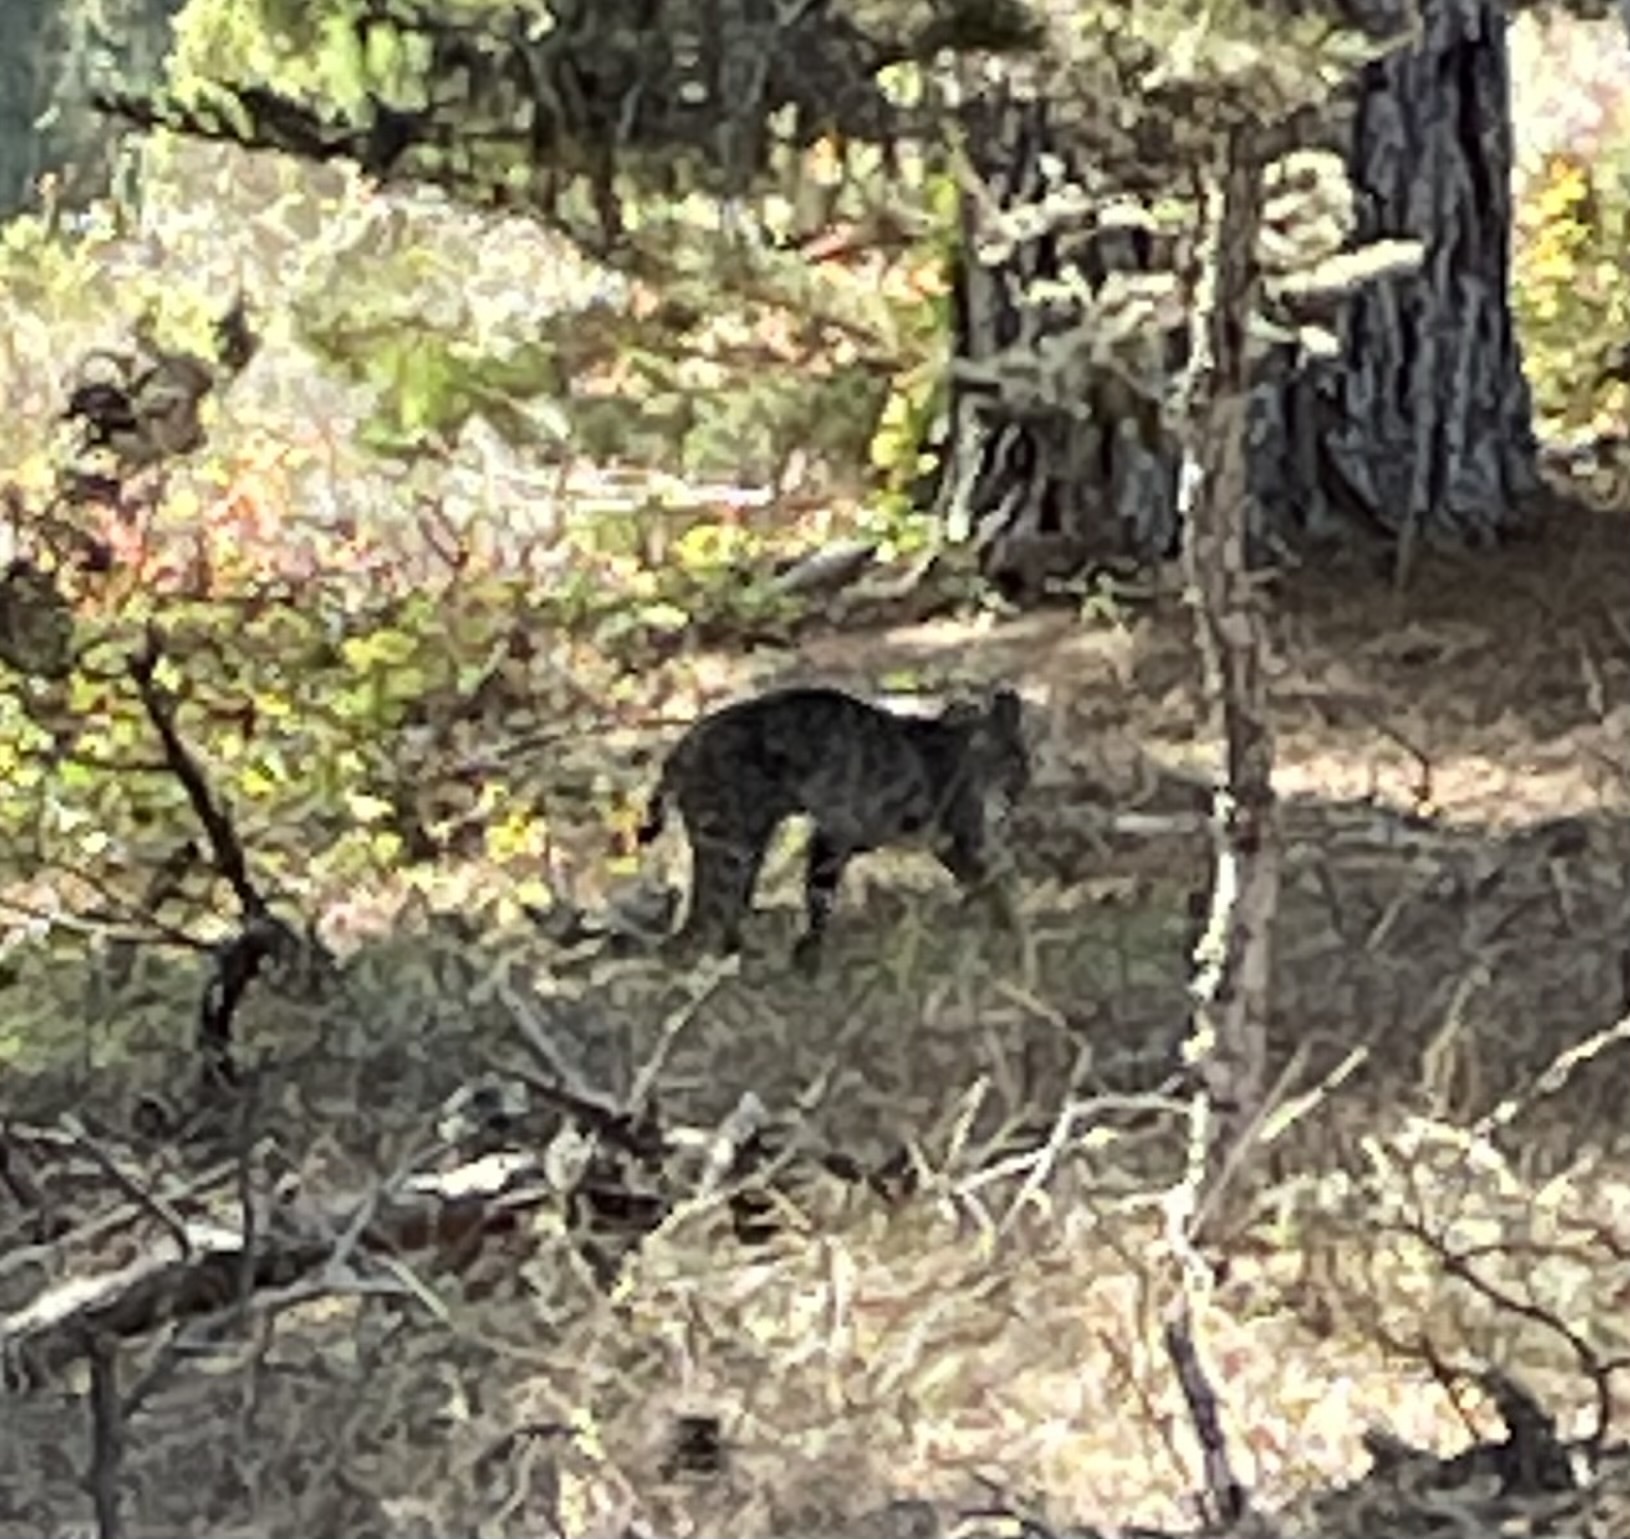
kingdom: Animalia
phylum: Chordata
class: Mammalia
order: Carnivora
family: Felidae
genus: Lynx
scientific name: Lynx rufus
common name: Bobcat
